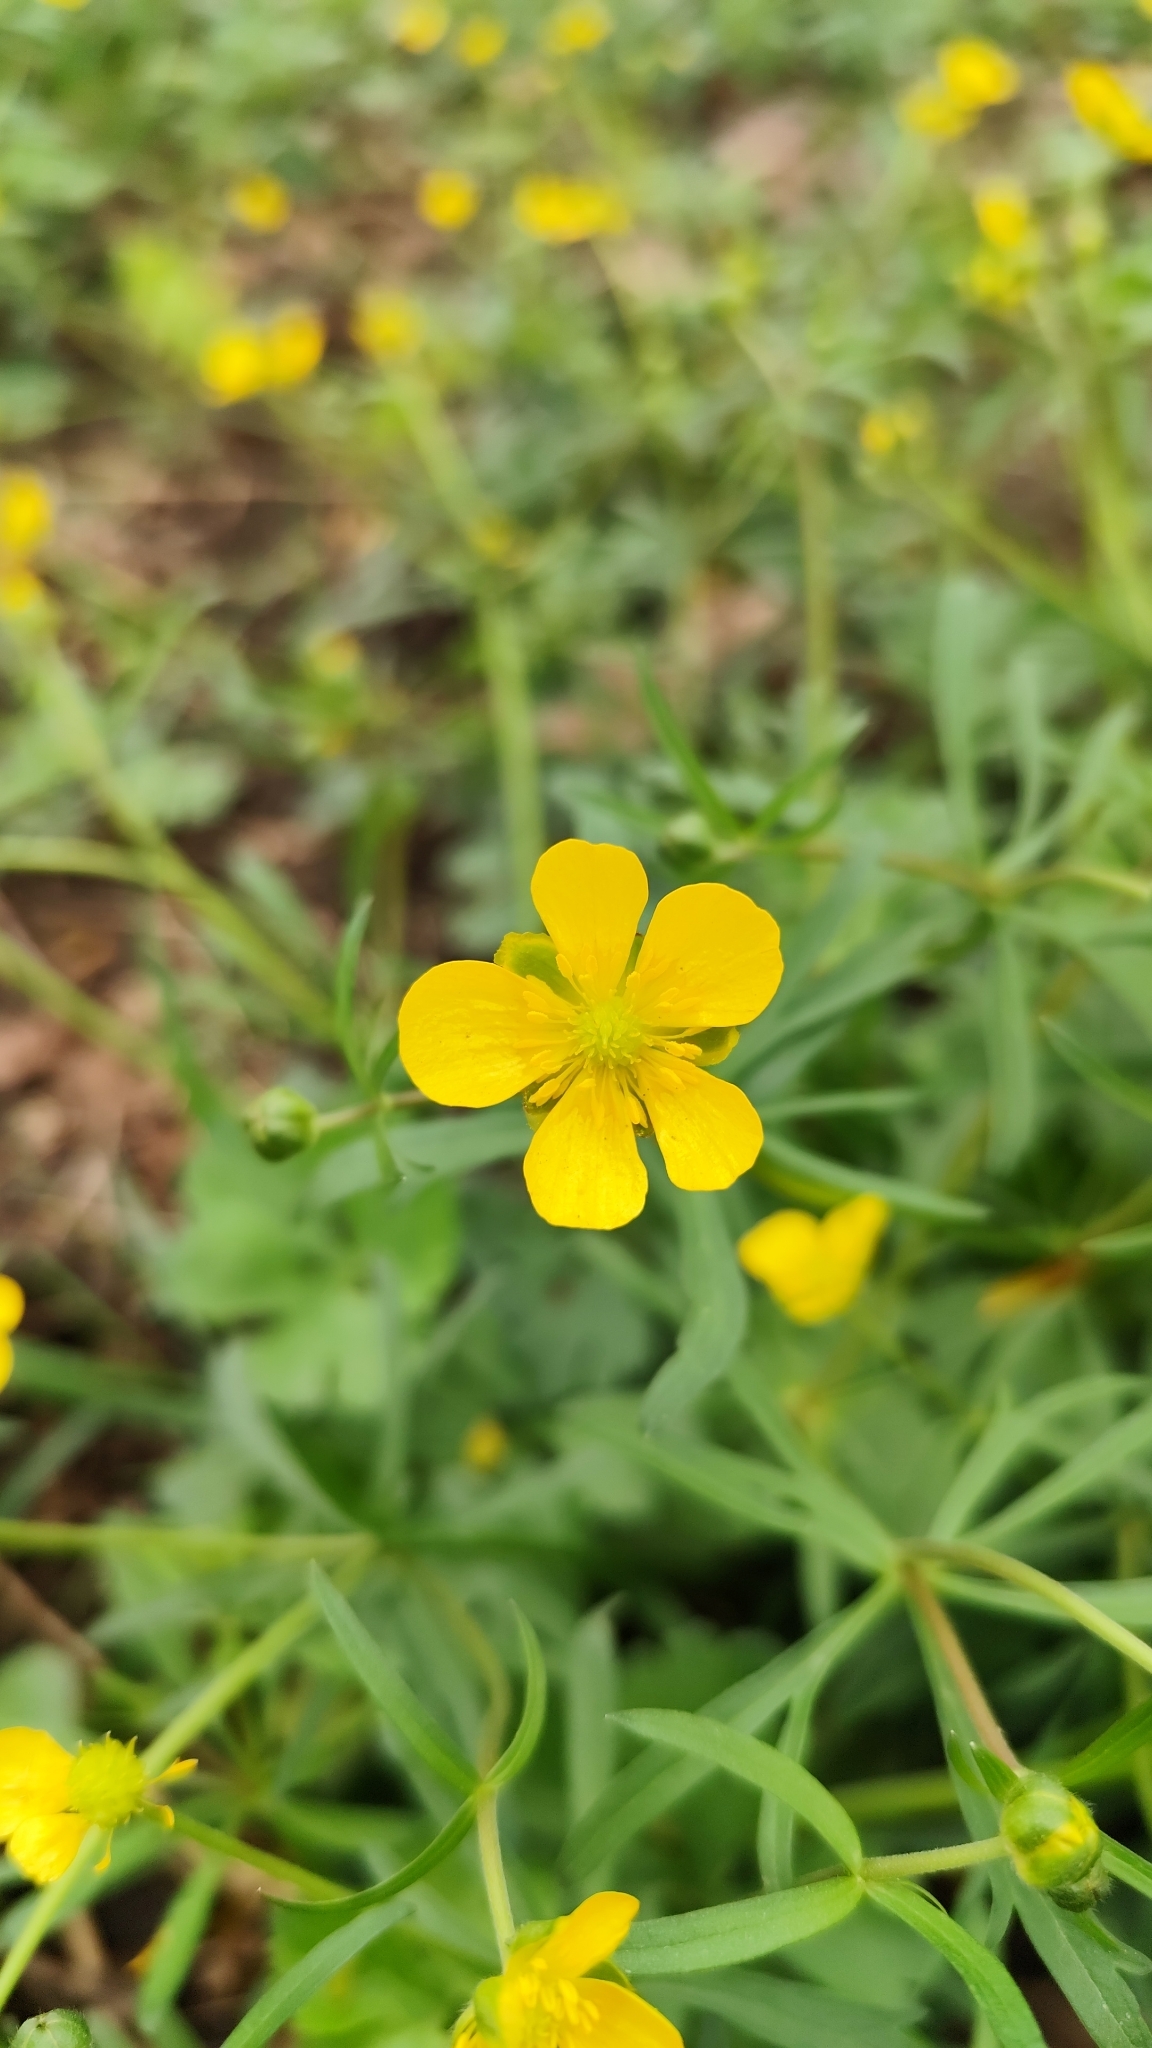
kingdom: Plantae
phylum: Tracheophyta
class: Magnoliopsida
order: Ranunculales
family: Ranunculaceae
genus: Ranunculus
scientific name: Ranunculus auricomus
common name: Goldilocks buttercup
